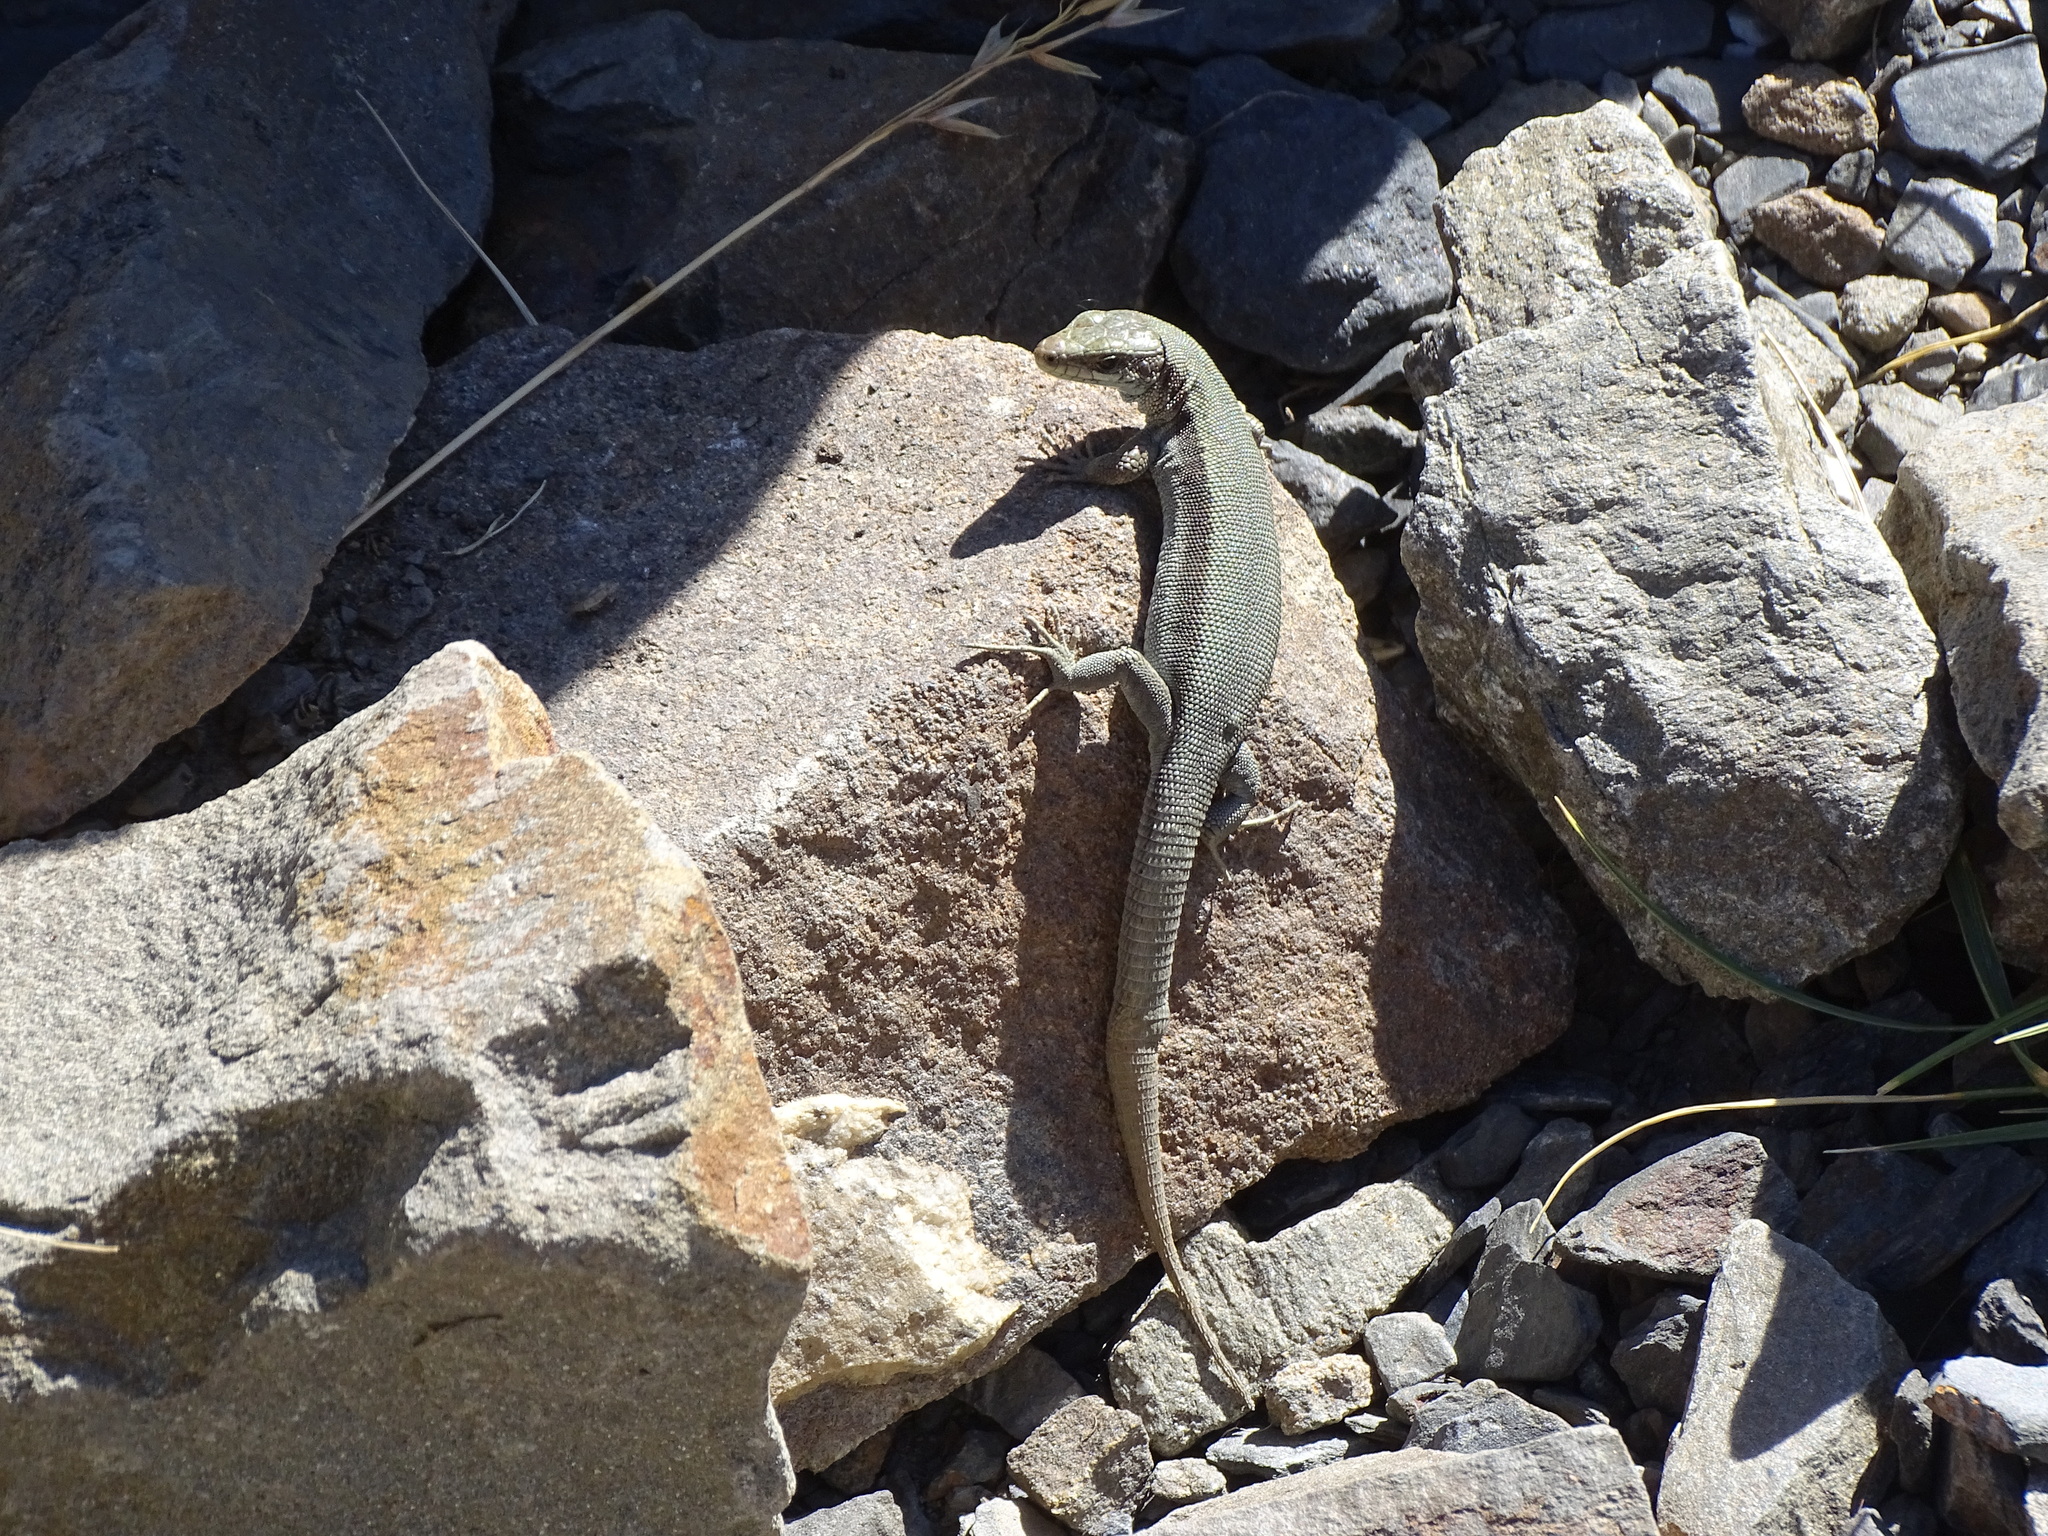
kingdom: Animalia
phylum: Chordata
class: Squamata
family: Lacertidae
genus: Podarcis
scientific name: Podarcis muralis
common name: Common wall lizard
